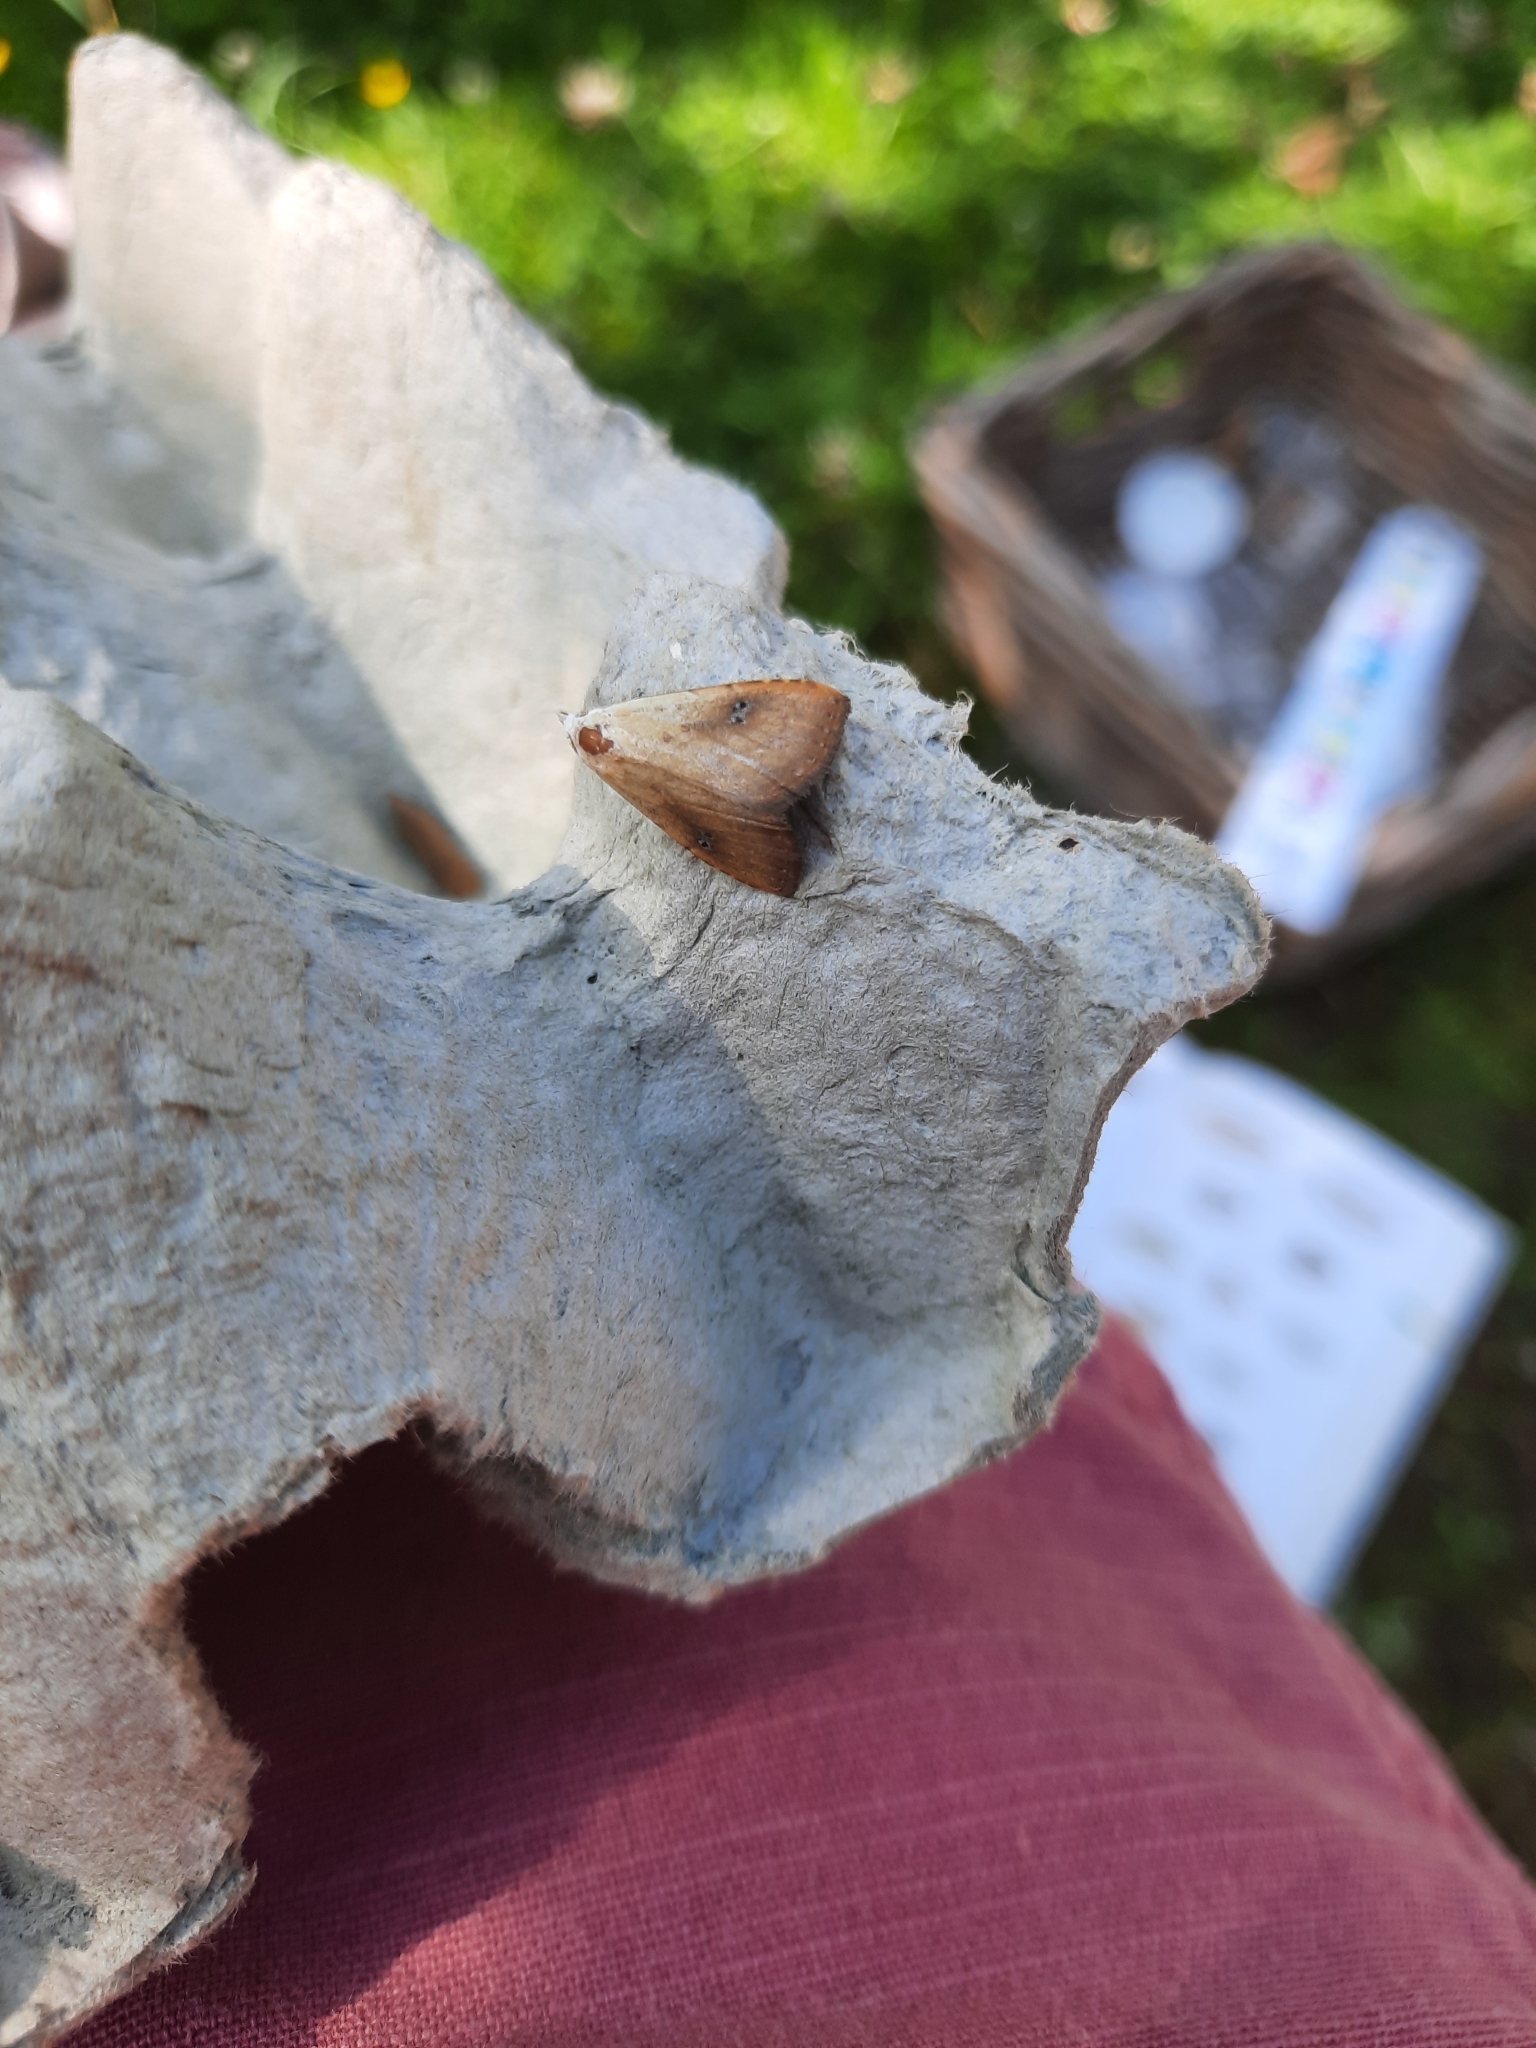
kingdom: Animalia
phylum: Arthropoda
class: Insecta
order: Lepidoptera
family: Erebidae
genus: Rivula
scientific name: Rivula sericealis
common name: Straw dot
